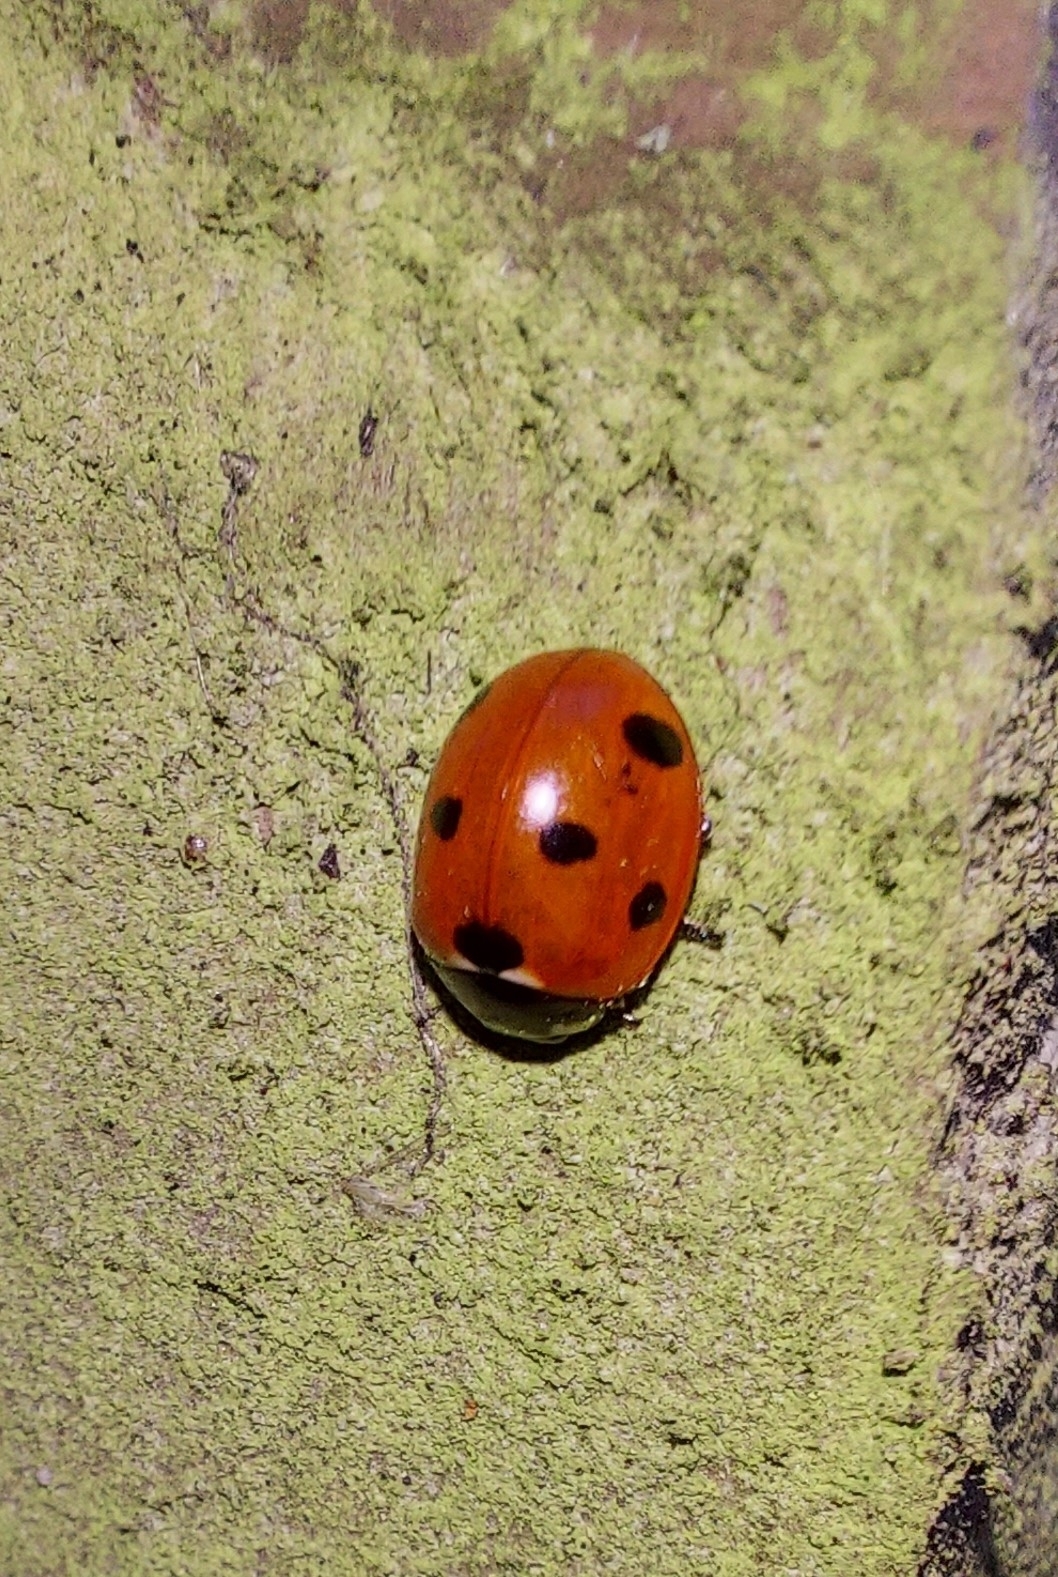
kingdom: Animalia
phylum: Arthropoda
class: Insecta
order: Coleoptera
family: Coccinellidae
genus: Coccinella
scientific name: Coccinella septempunctata
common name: Sevenspotted lady beetle
